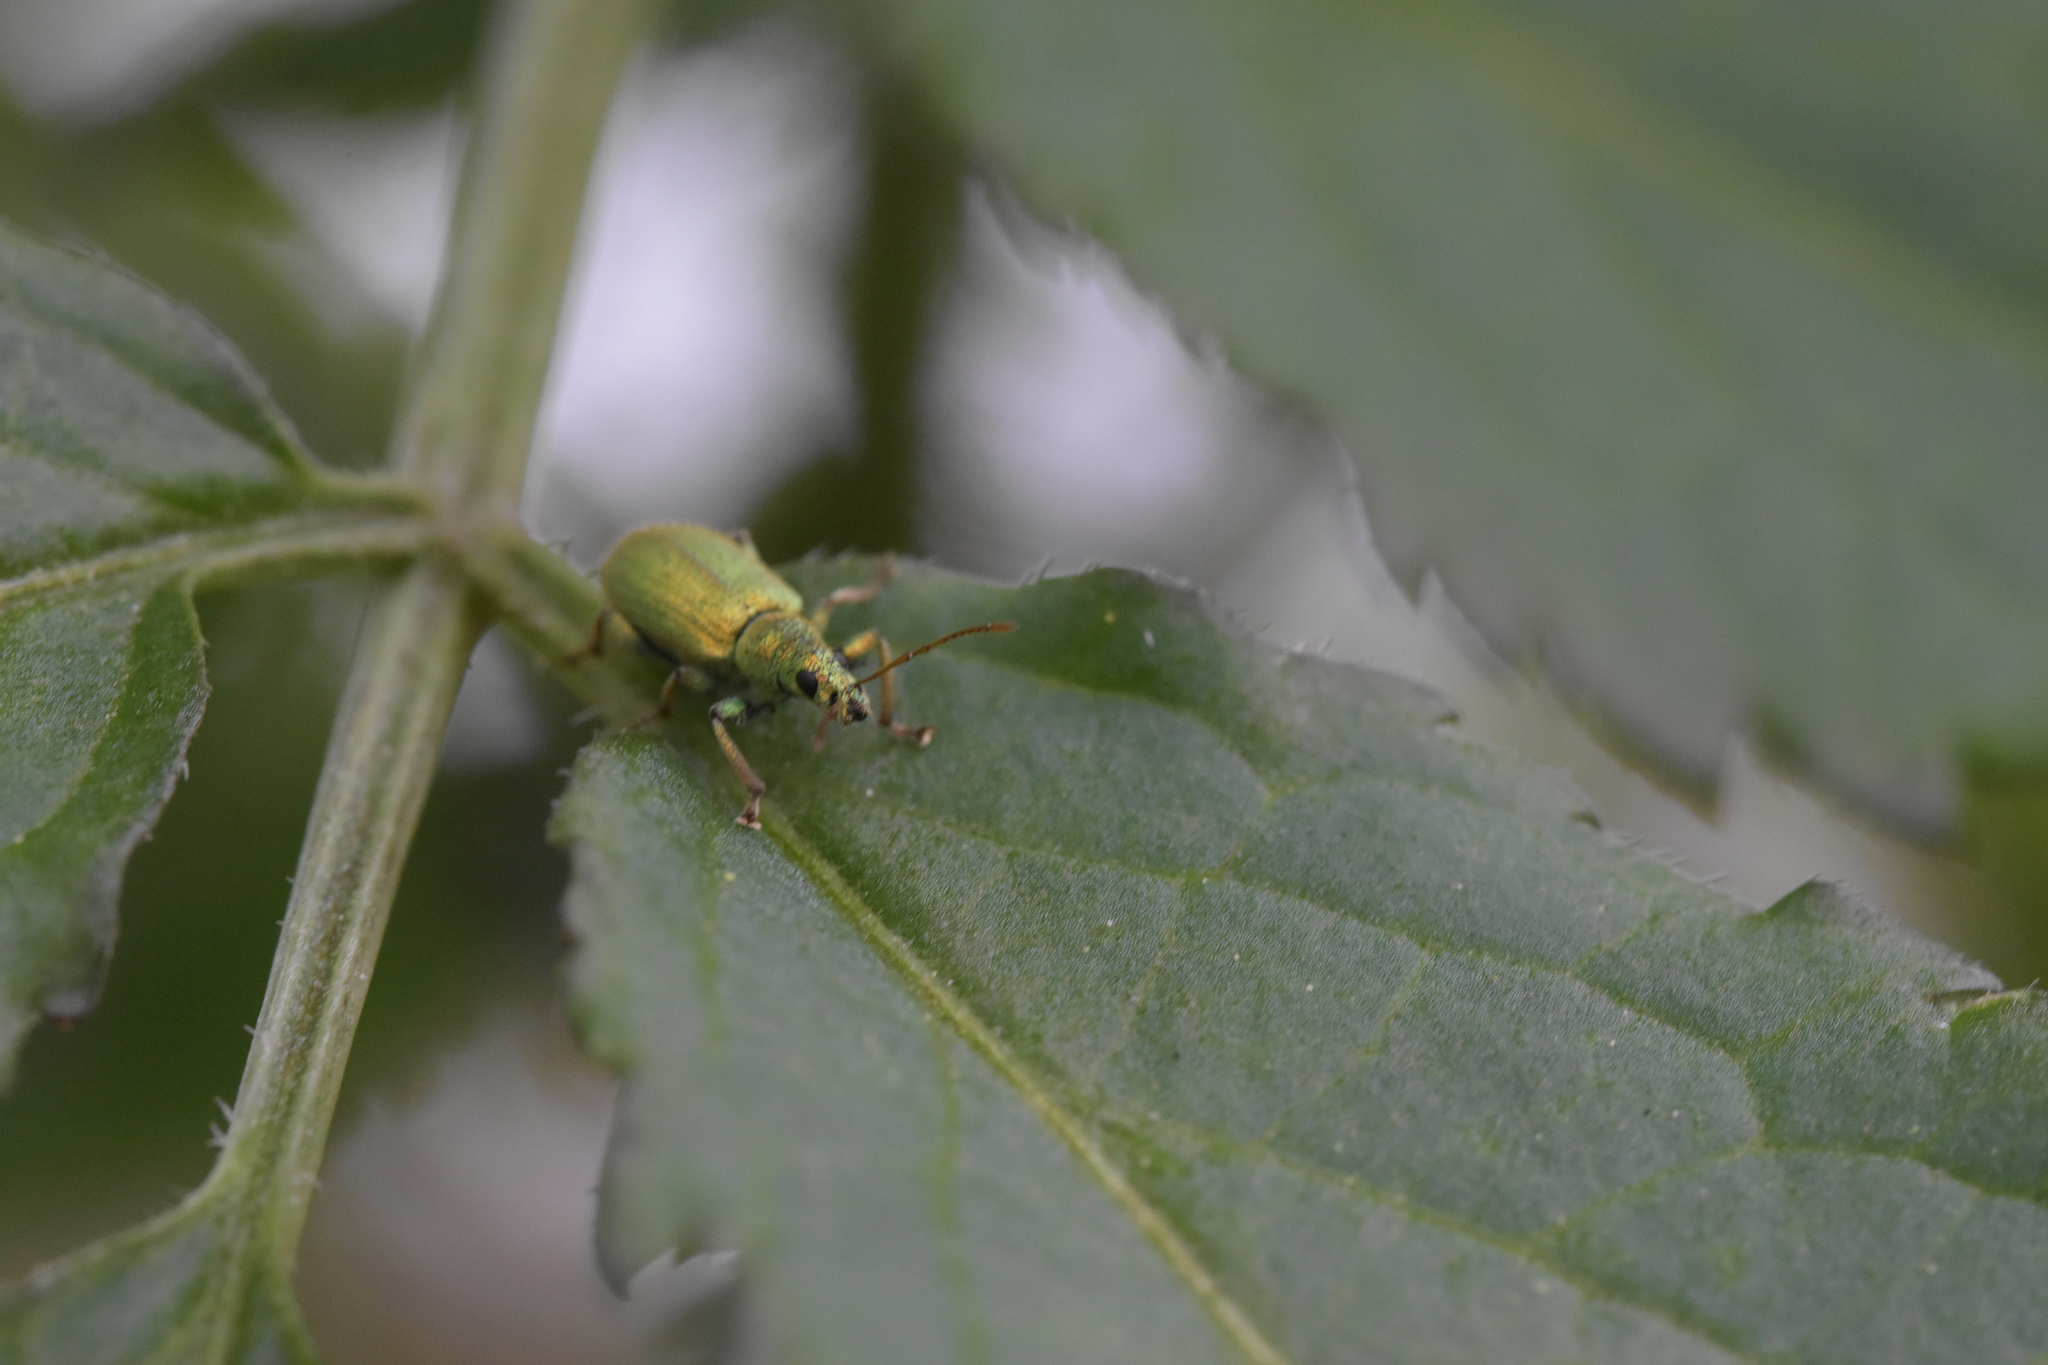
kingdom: Animalia
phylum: Arthropoda
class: Insecta
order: Coleoptera
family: Curculionidae
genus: Phyllobius
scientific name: Phyllobius argentatus
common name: Silver-green leaf weevil
